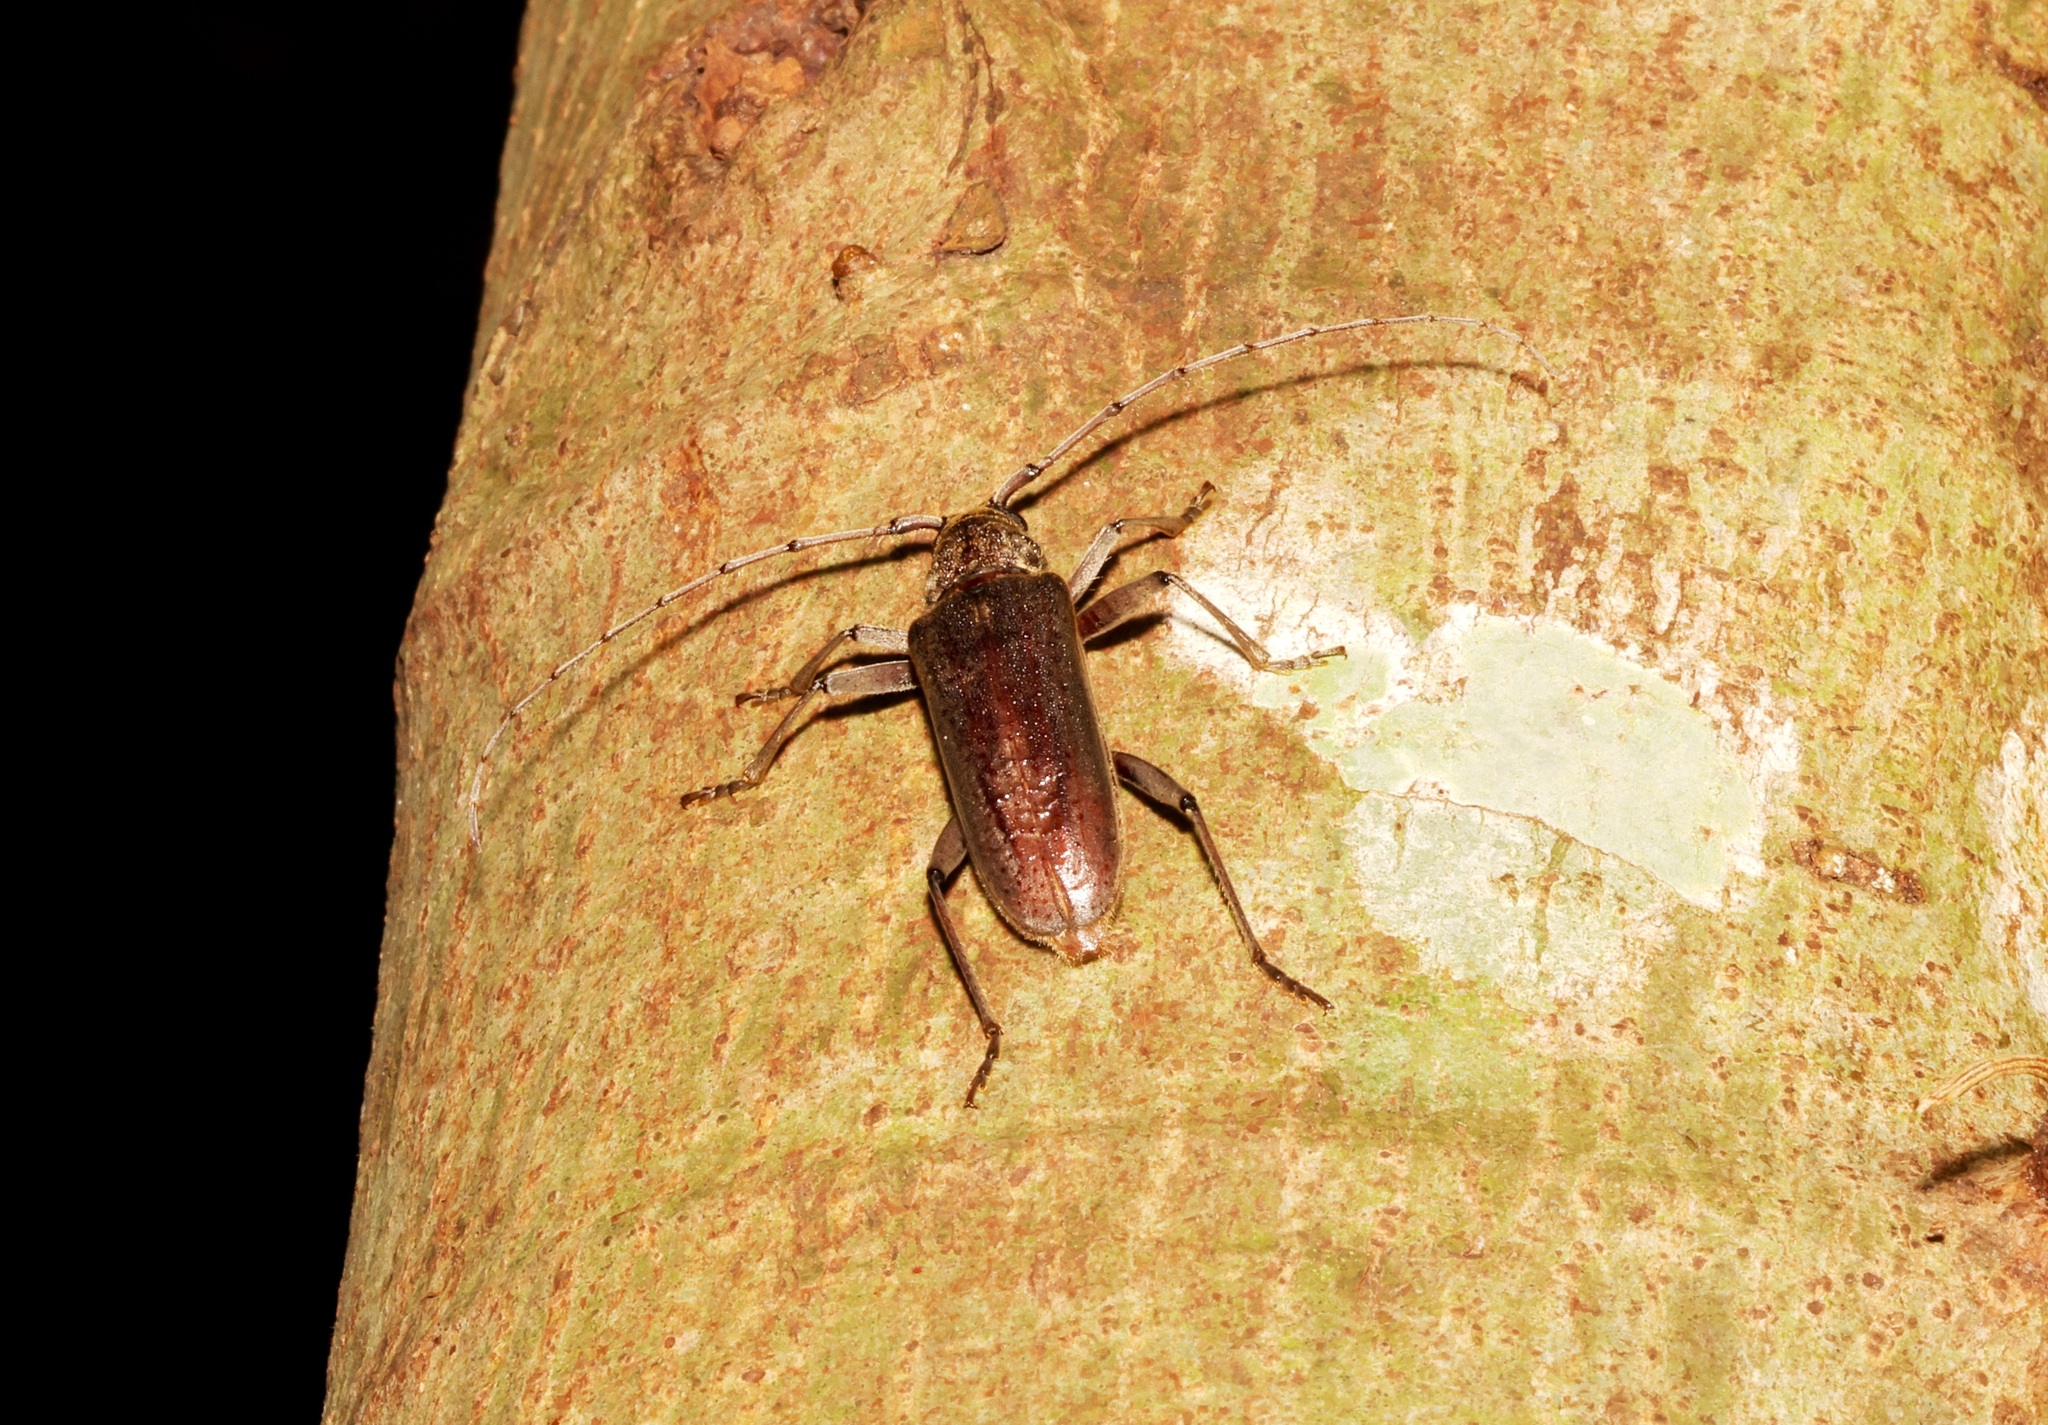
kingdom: Animalia
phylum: Arthropoda
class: Insecta
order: Coleoptera
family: Cerambycidae
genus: Stromatium
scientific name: Stromatium longicorne
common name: Long-horned beetle
